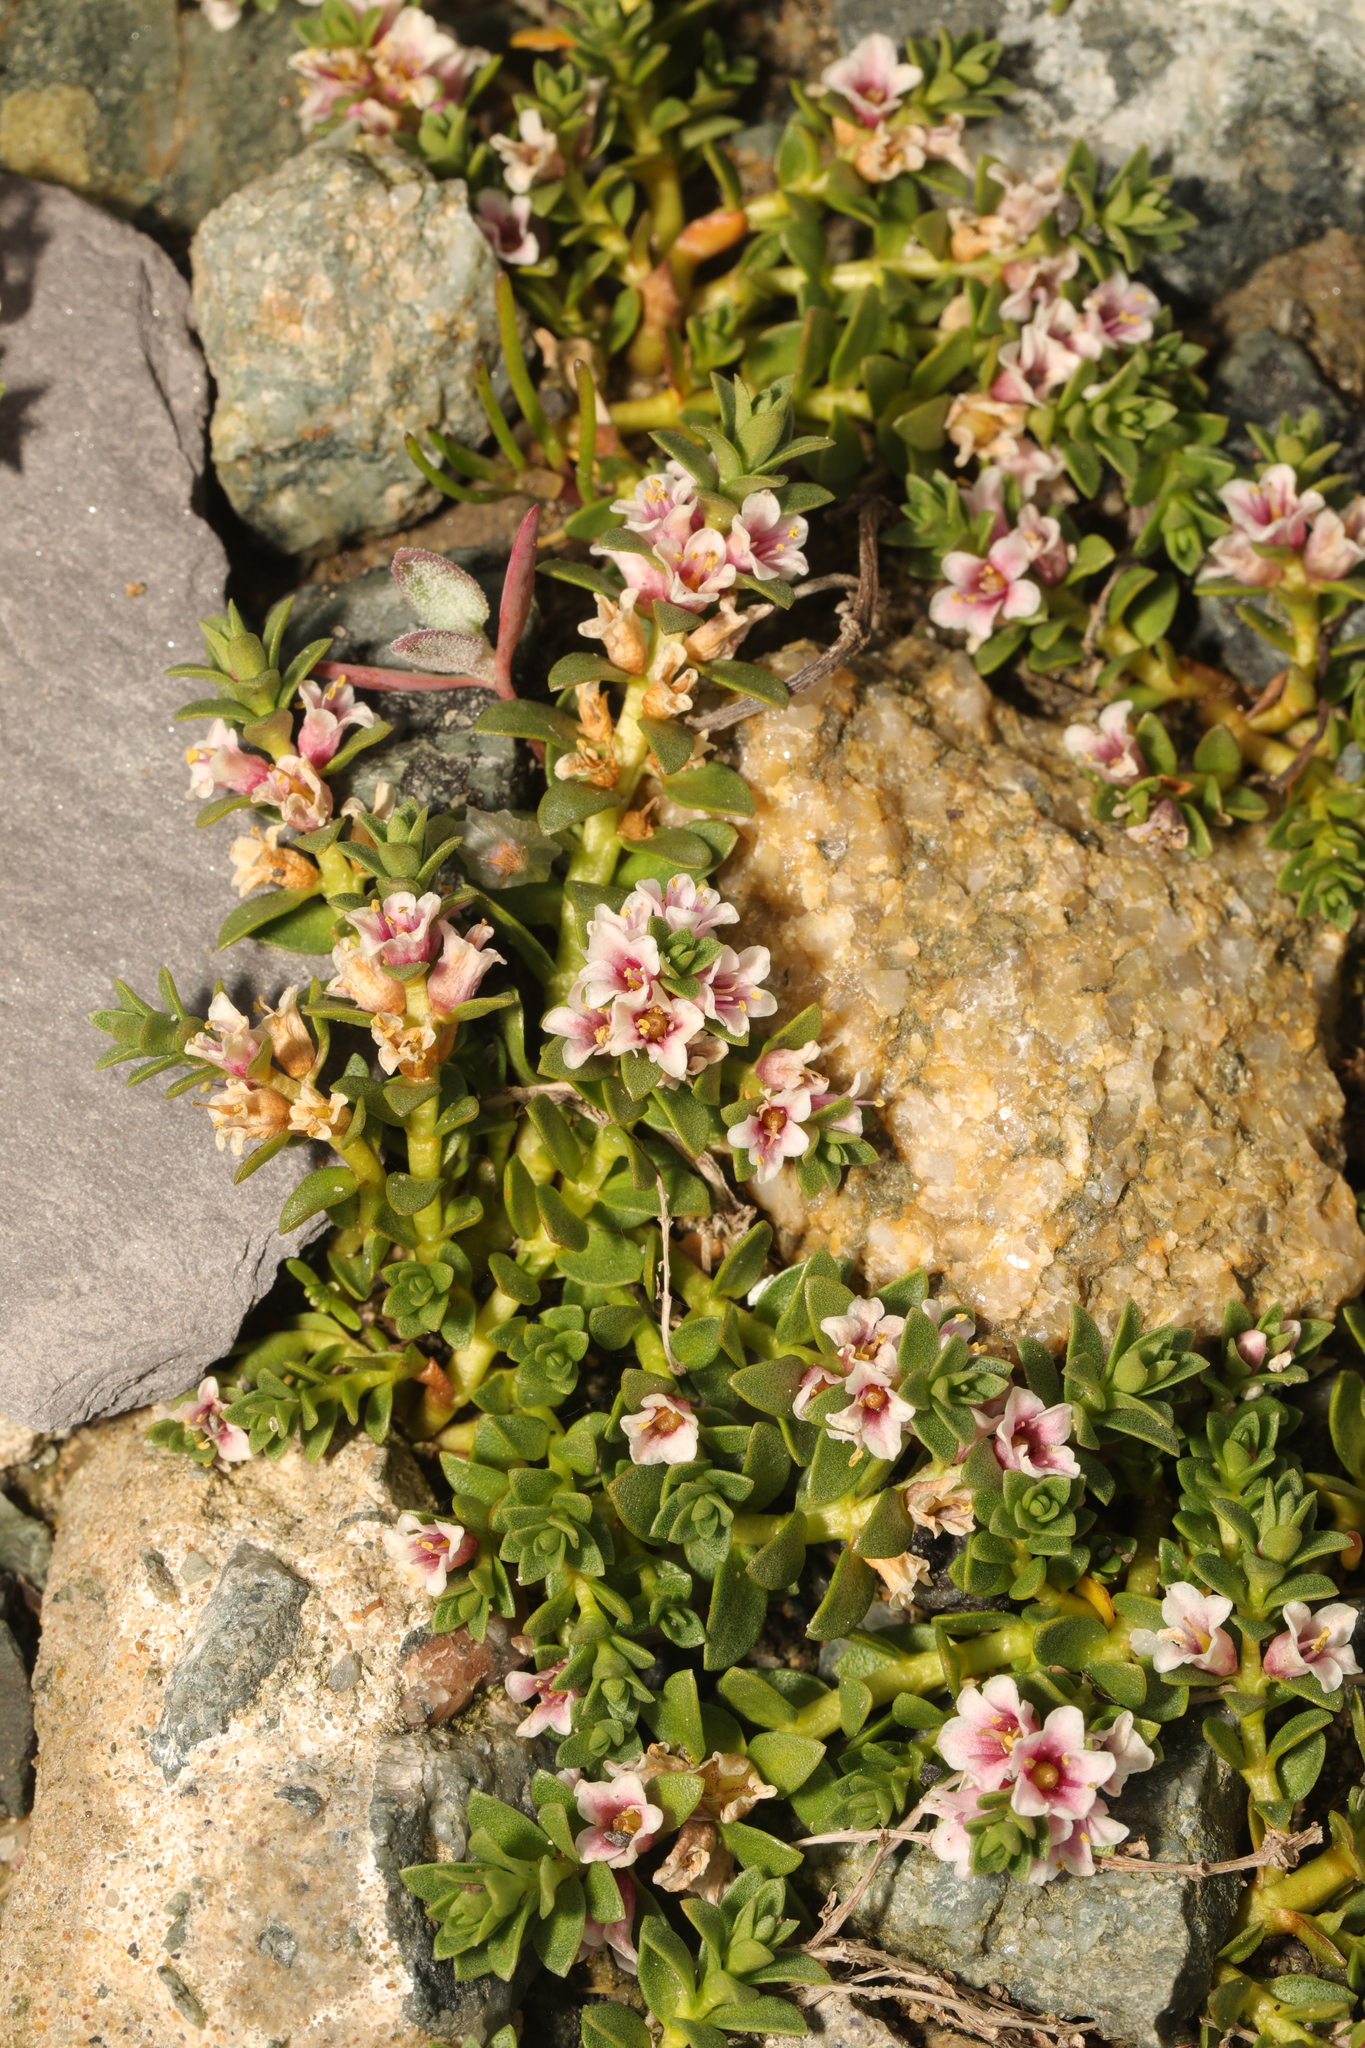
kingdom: Plantae
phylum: Tracheophyta
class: Magnoliopsida
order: Ericales
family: Primulaceae
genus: Lysimachia
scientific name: Lysimachia maritima
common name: Sea milkwort
